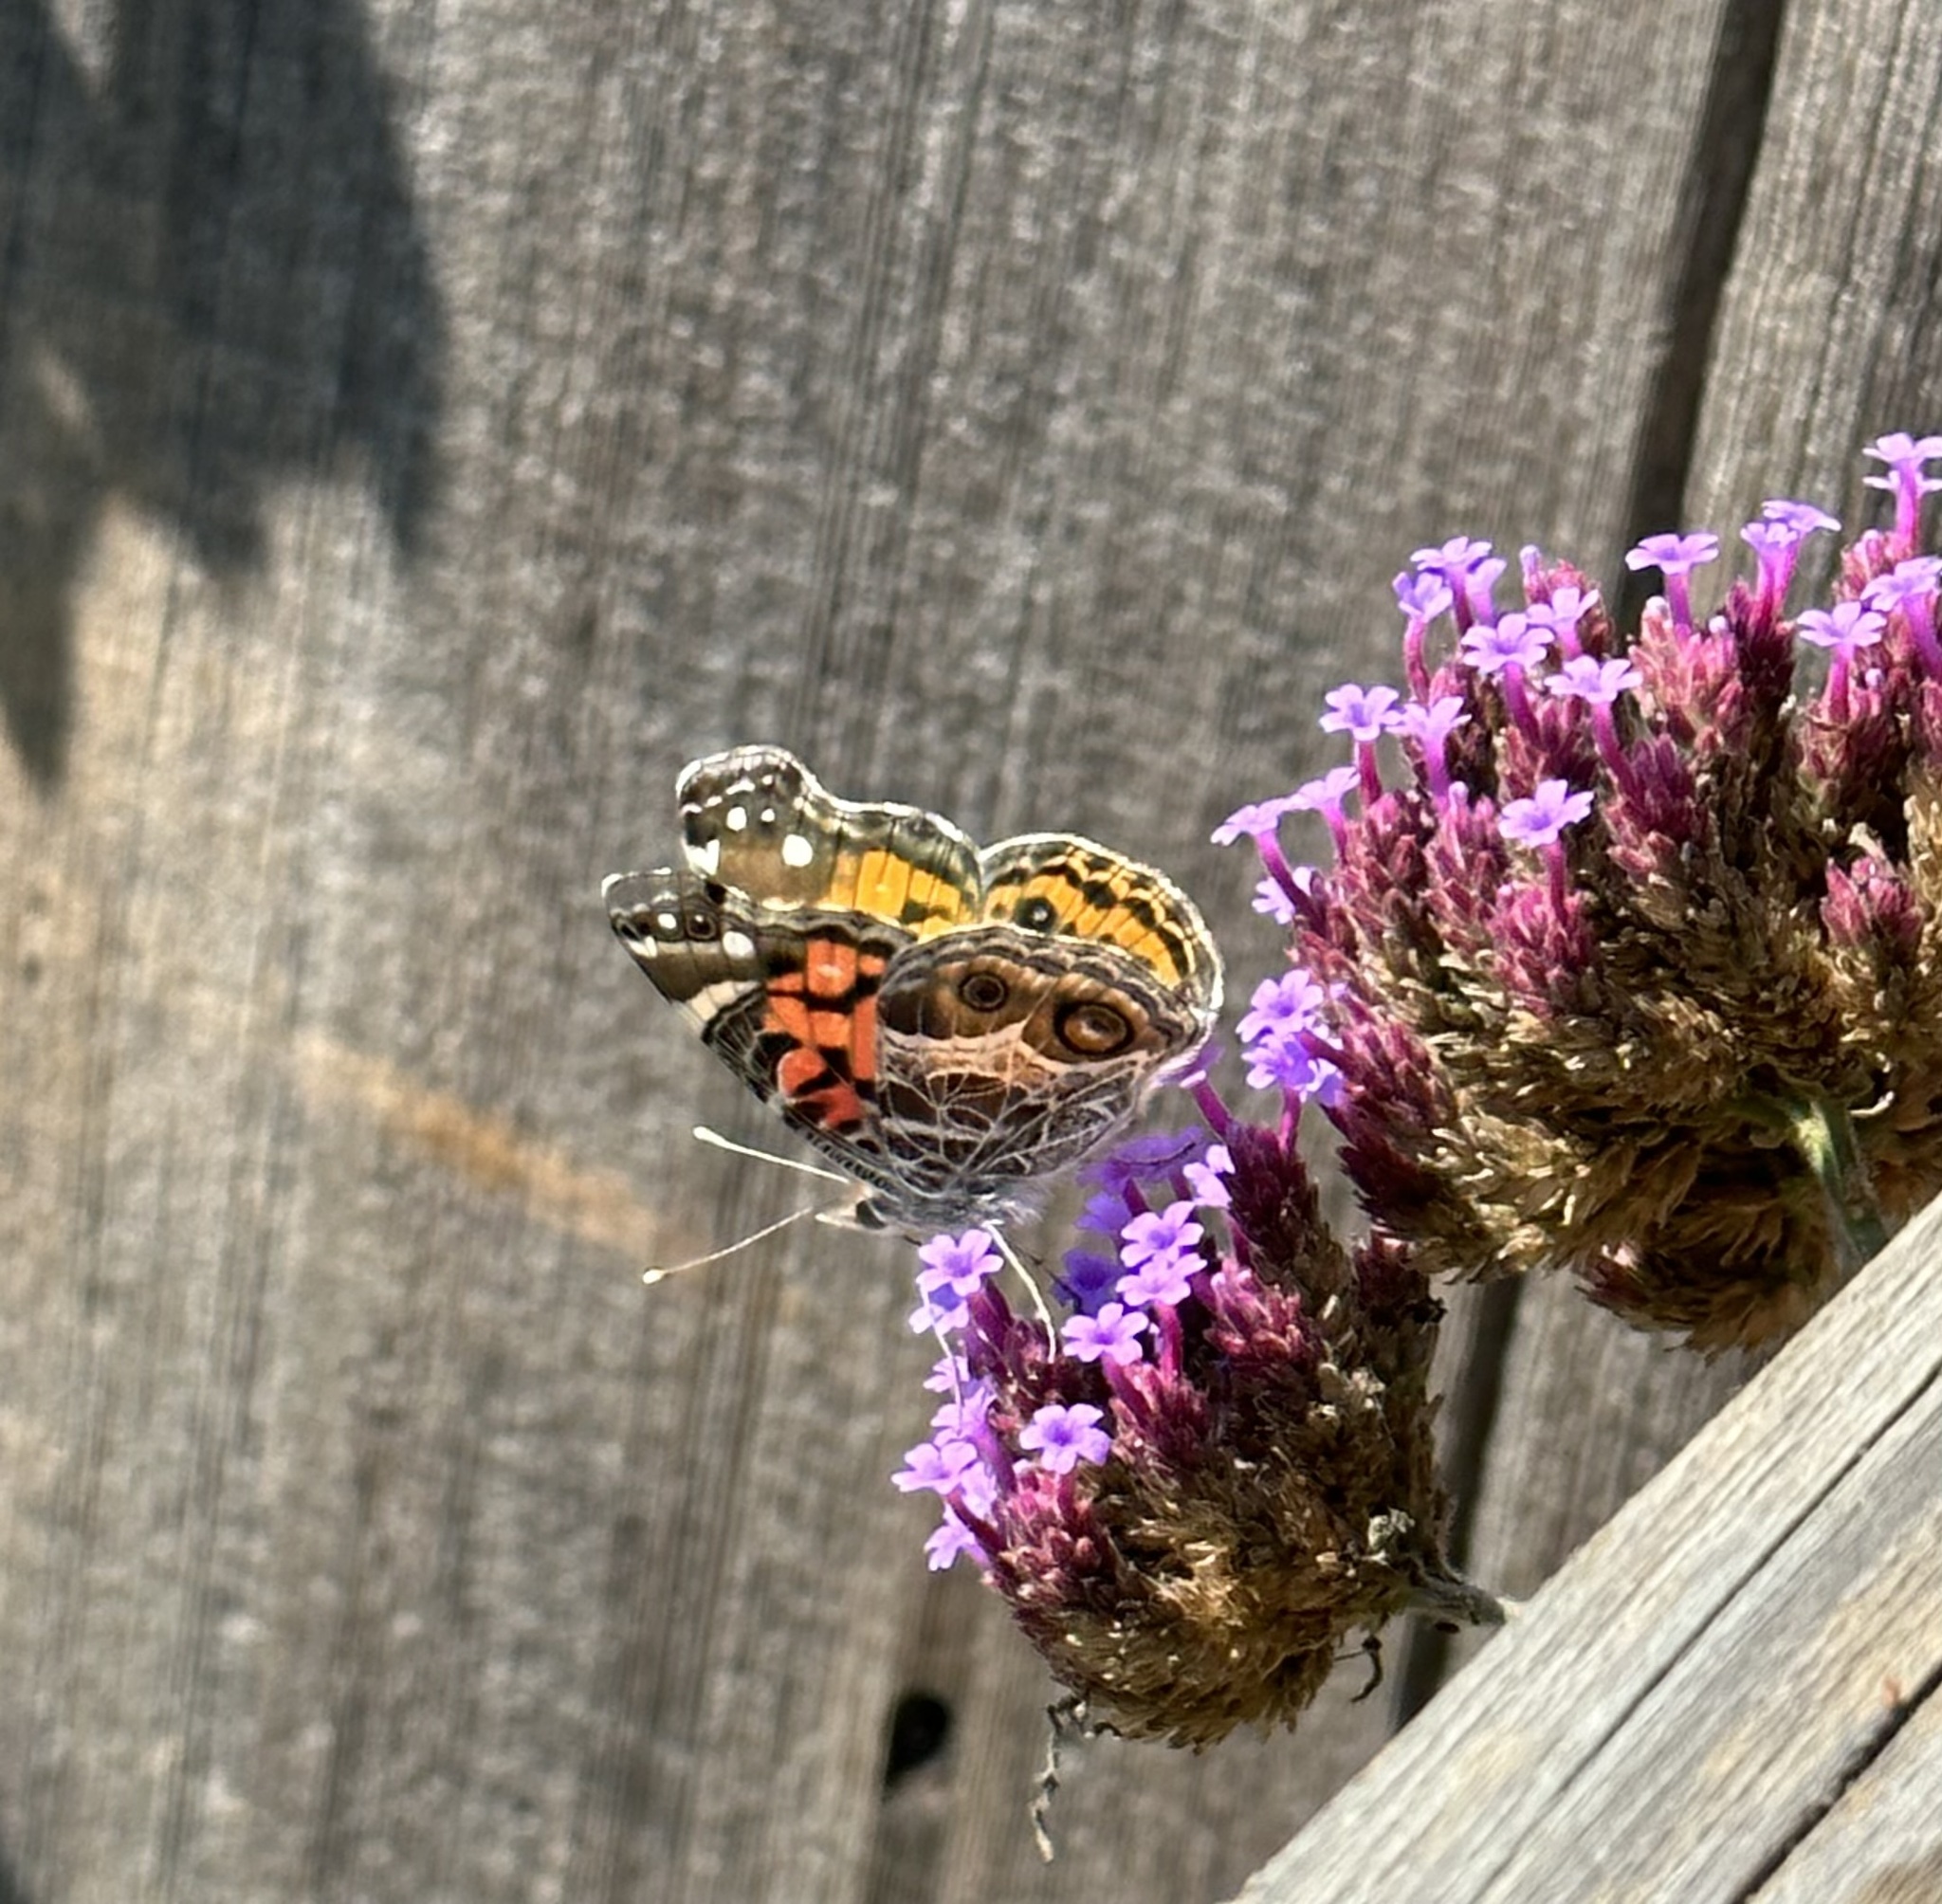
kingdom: Animalia
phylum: Arthropoda
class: Insecta
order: Lepidoptera
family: Nymphalidae
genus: Vanessa
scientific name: Vanessa virginiensis
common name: American lady
